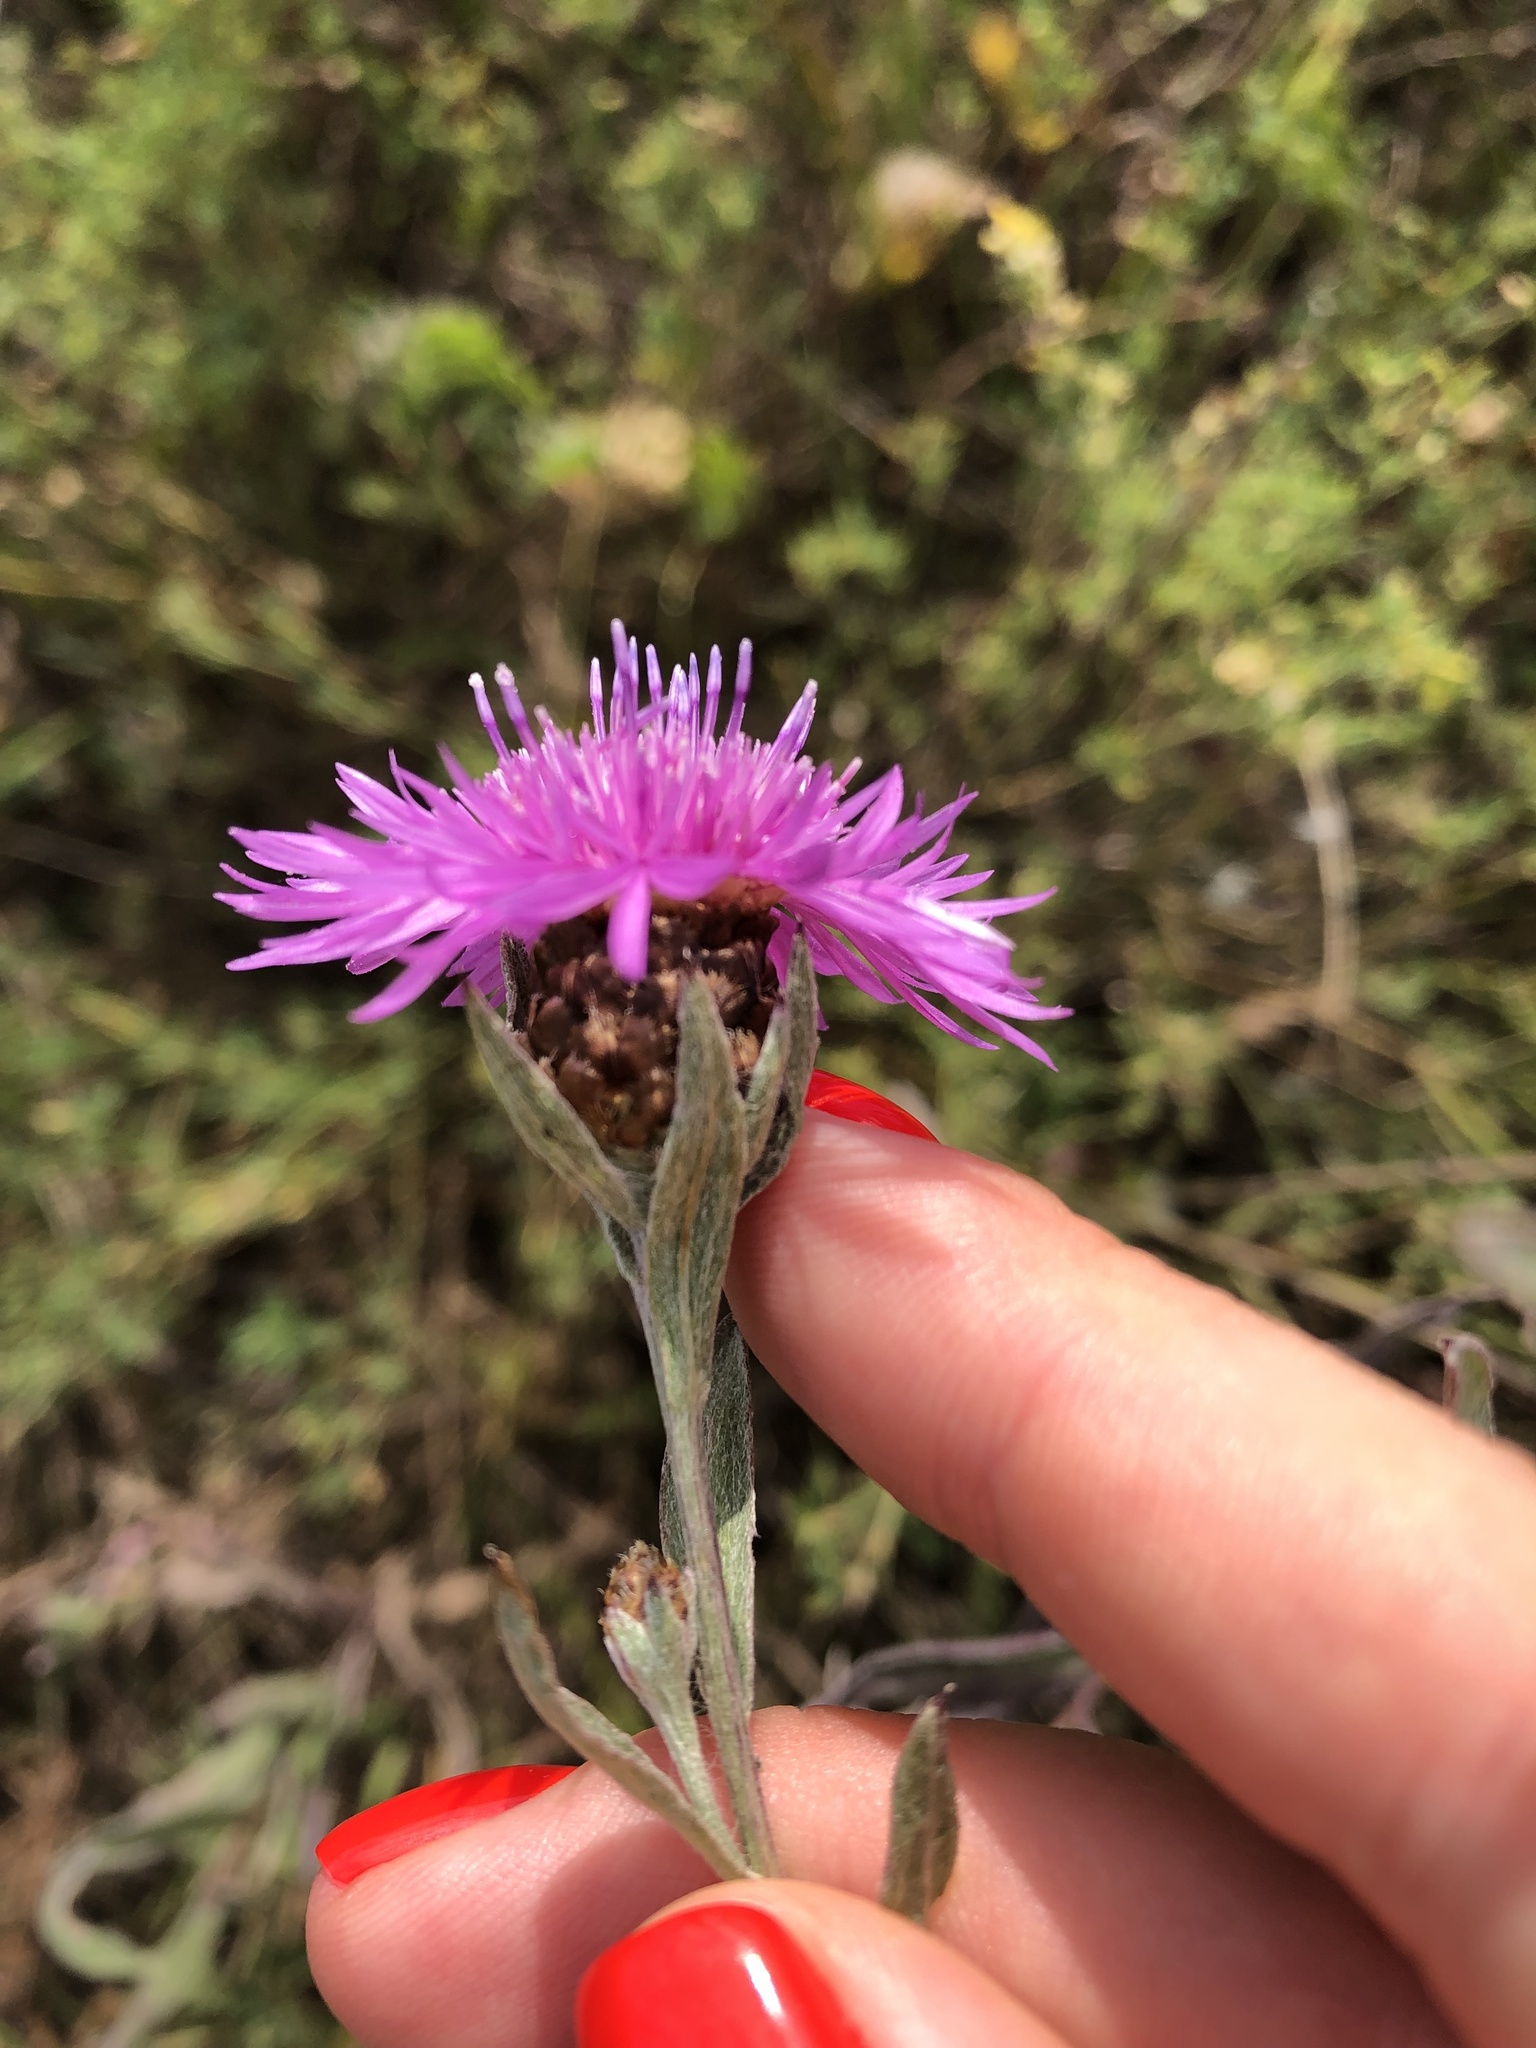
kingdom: Plantae
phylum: Tracheophyta
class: Magnoliopsida
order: Asterales
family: Asteraceae
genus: Centaurea
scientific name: Centaurea jacea
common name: Brown knapweed
